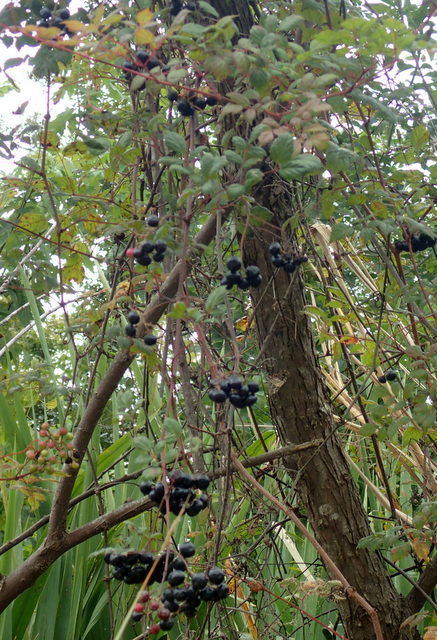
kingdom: Plantae
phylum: Tracheophyta
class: Magnoliopsida
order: Vitales
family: Vitaceae
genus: Nekemias
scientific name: Nekemias arborea
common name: Peppervine
